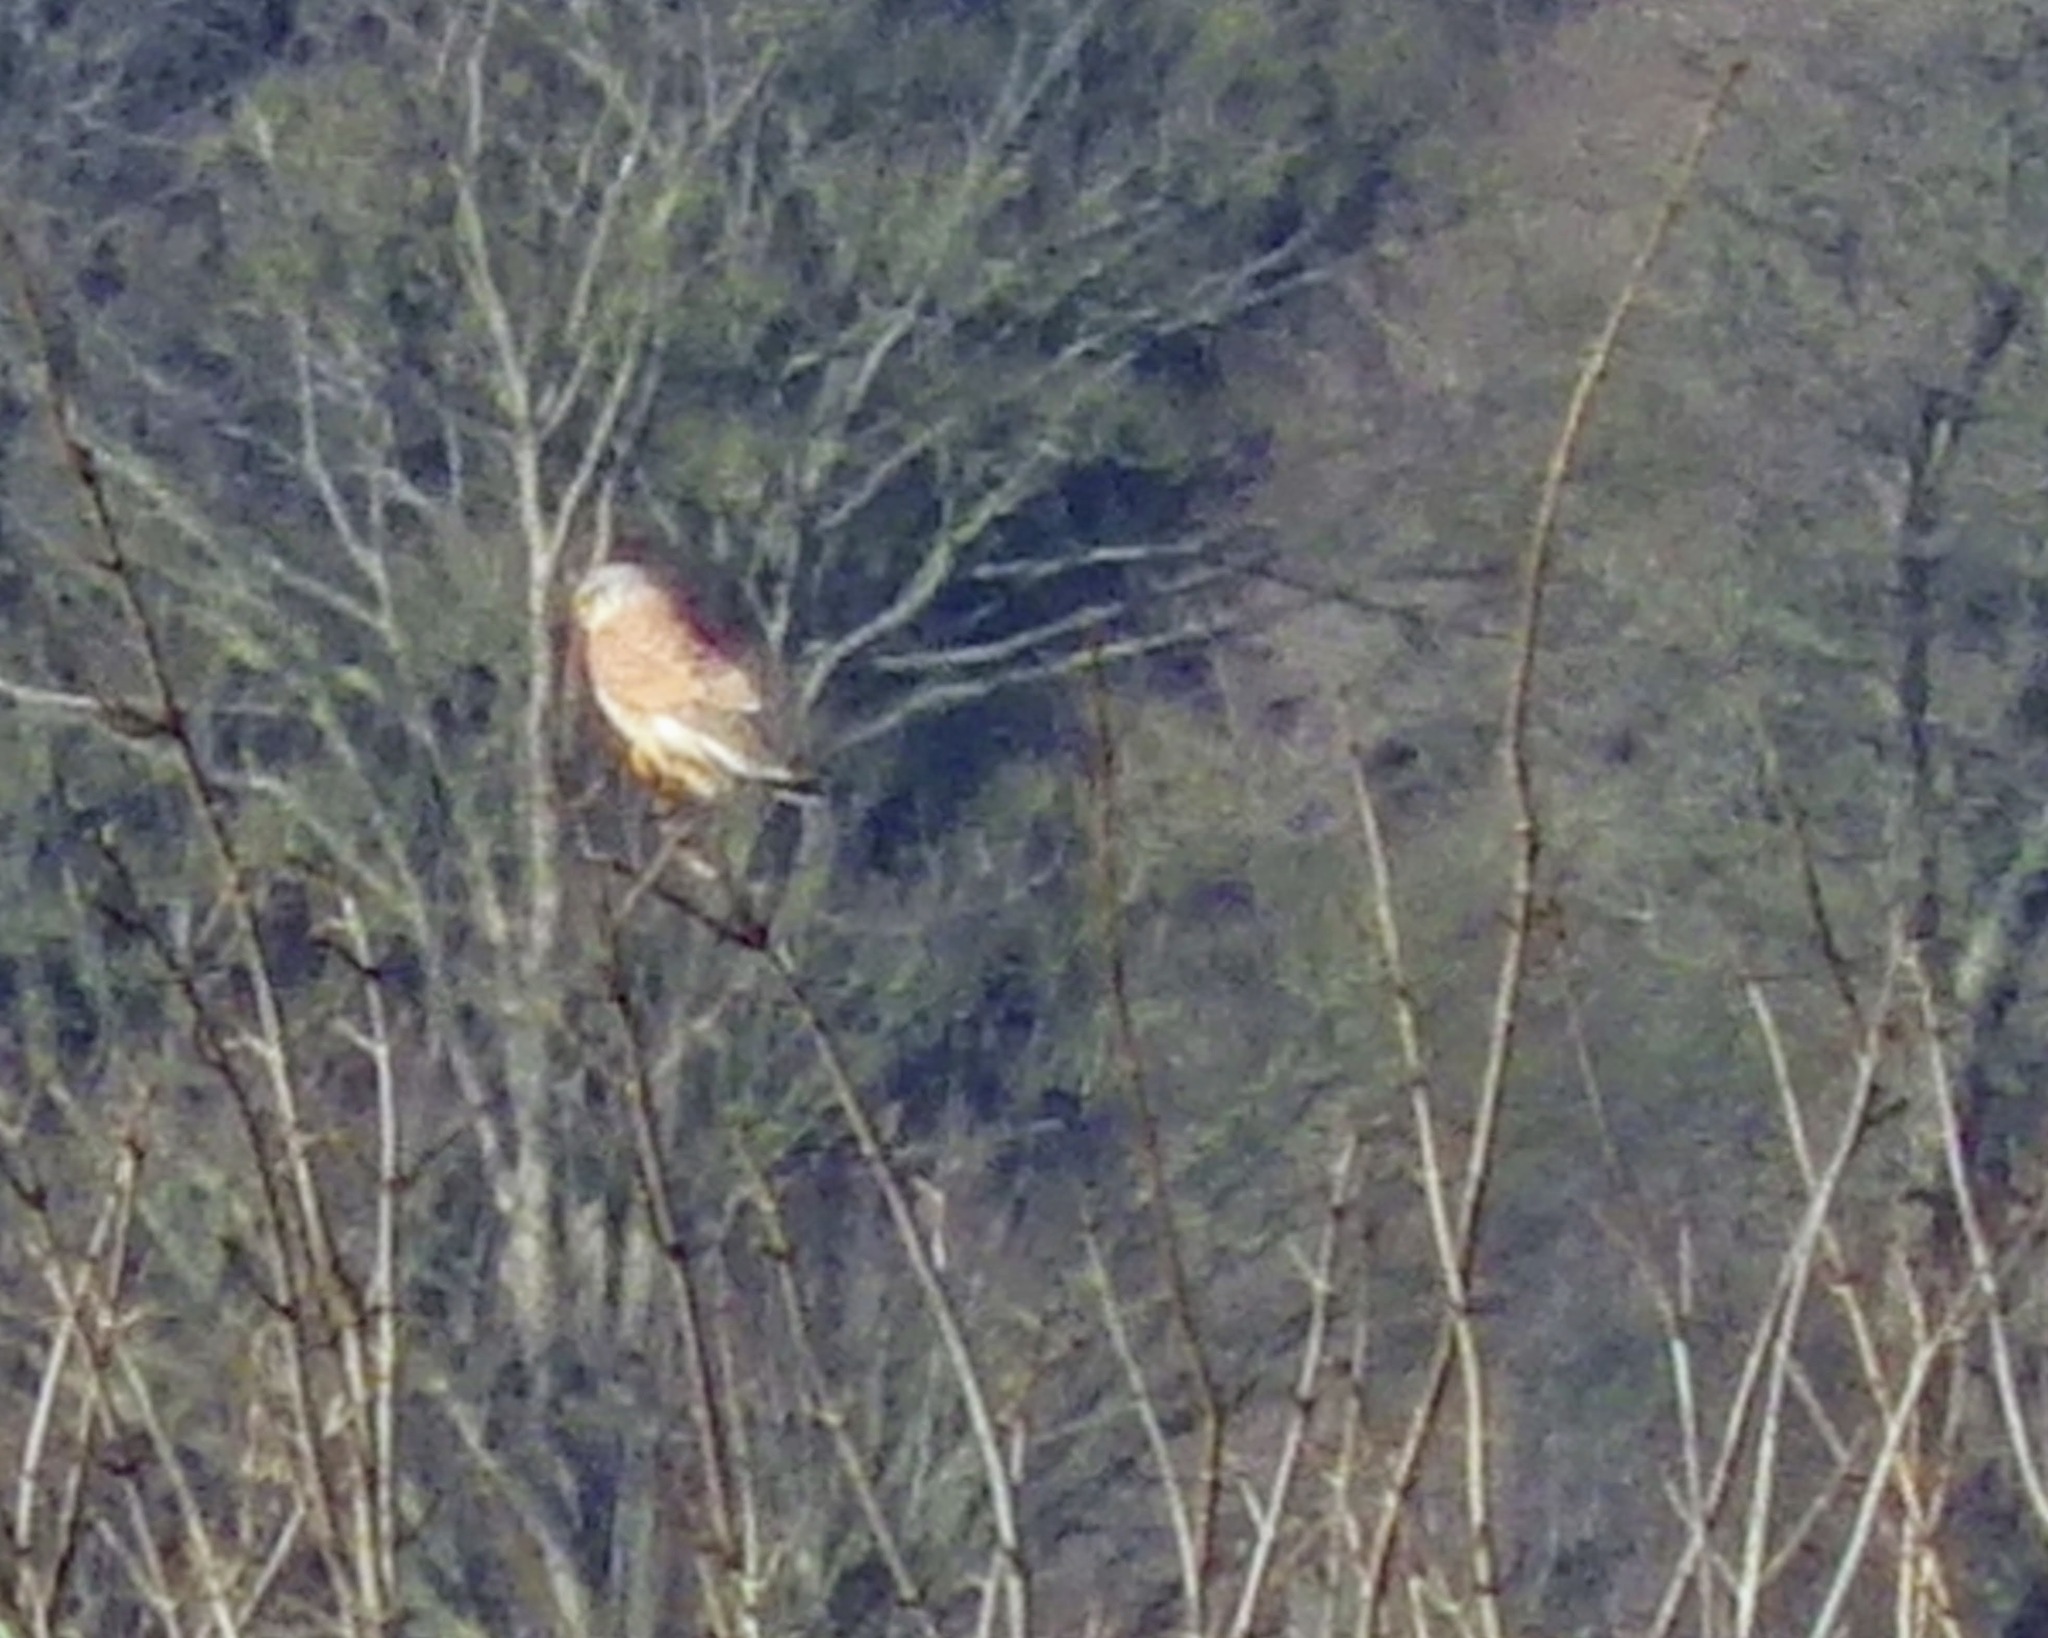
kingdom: Animalia
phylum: Chordata
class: Aves
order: Falconiformes
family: Falconidae
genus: Falco
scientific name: Falco tinnunculus
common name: Common kestrel
